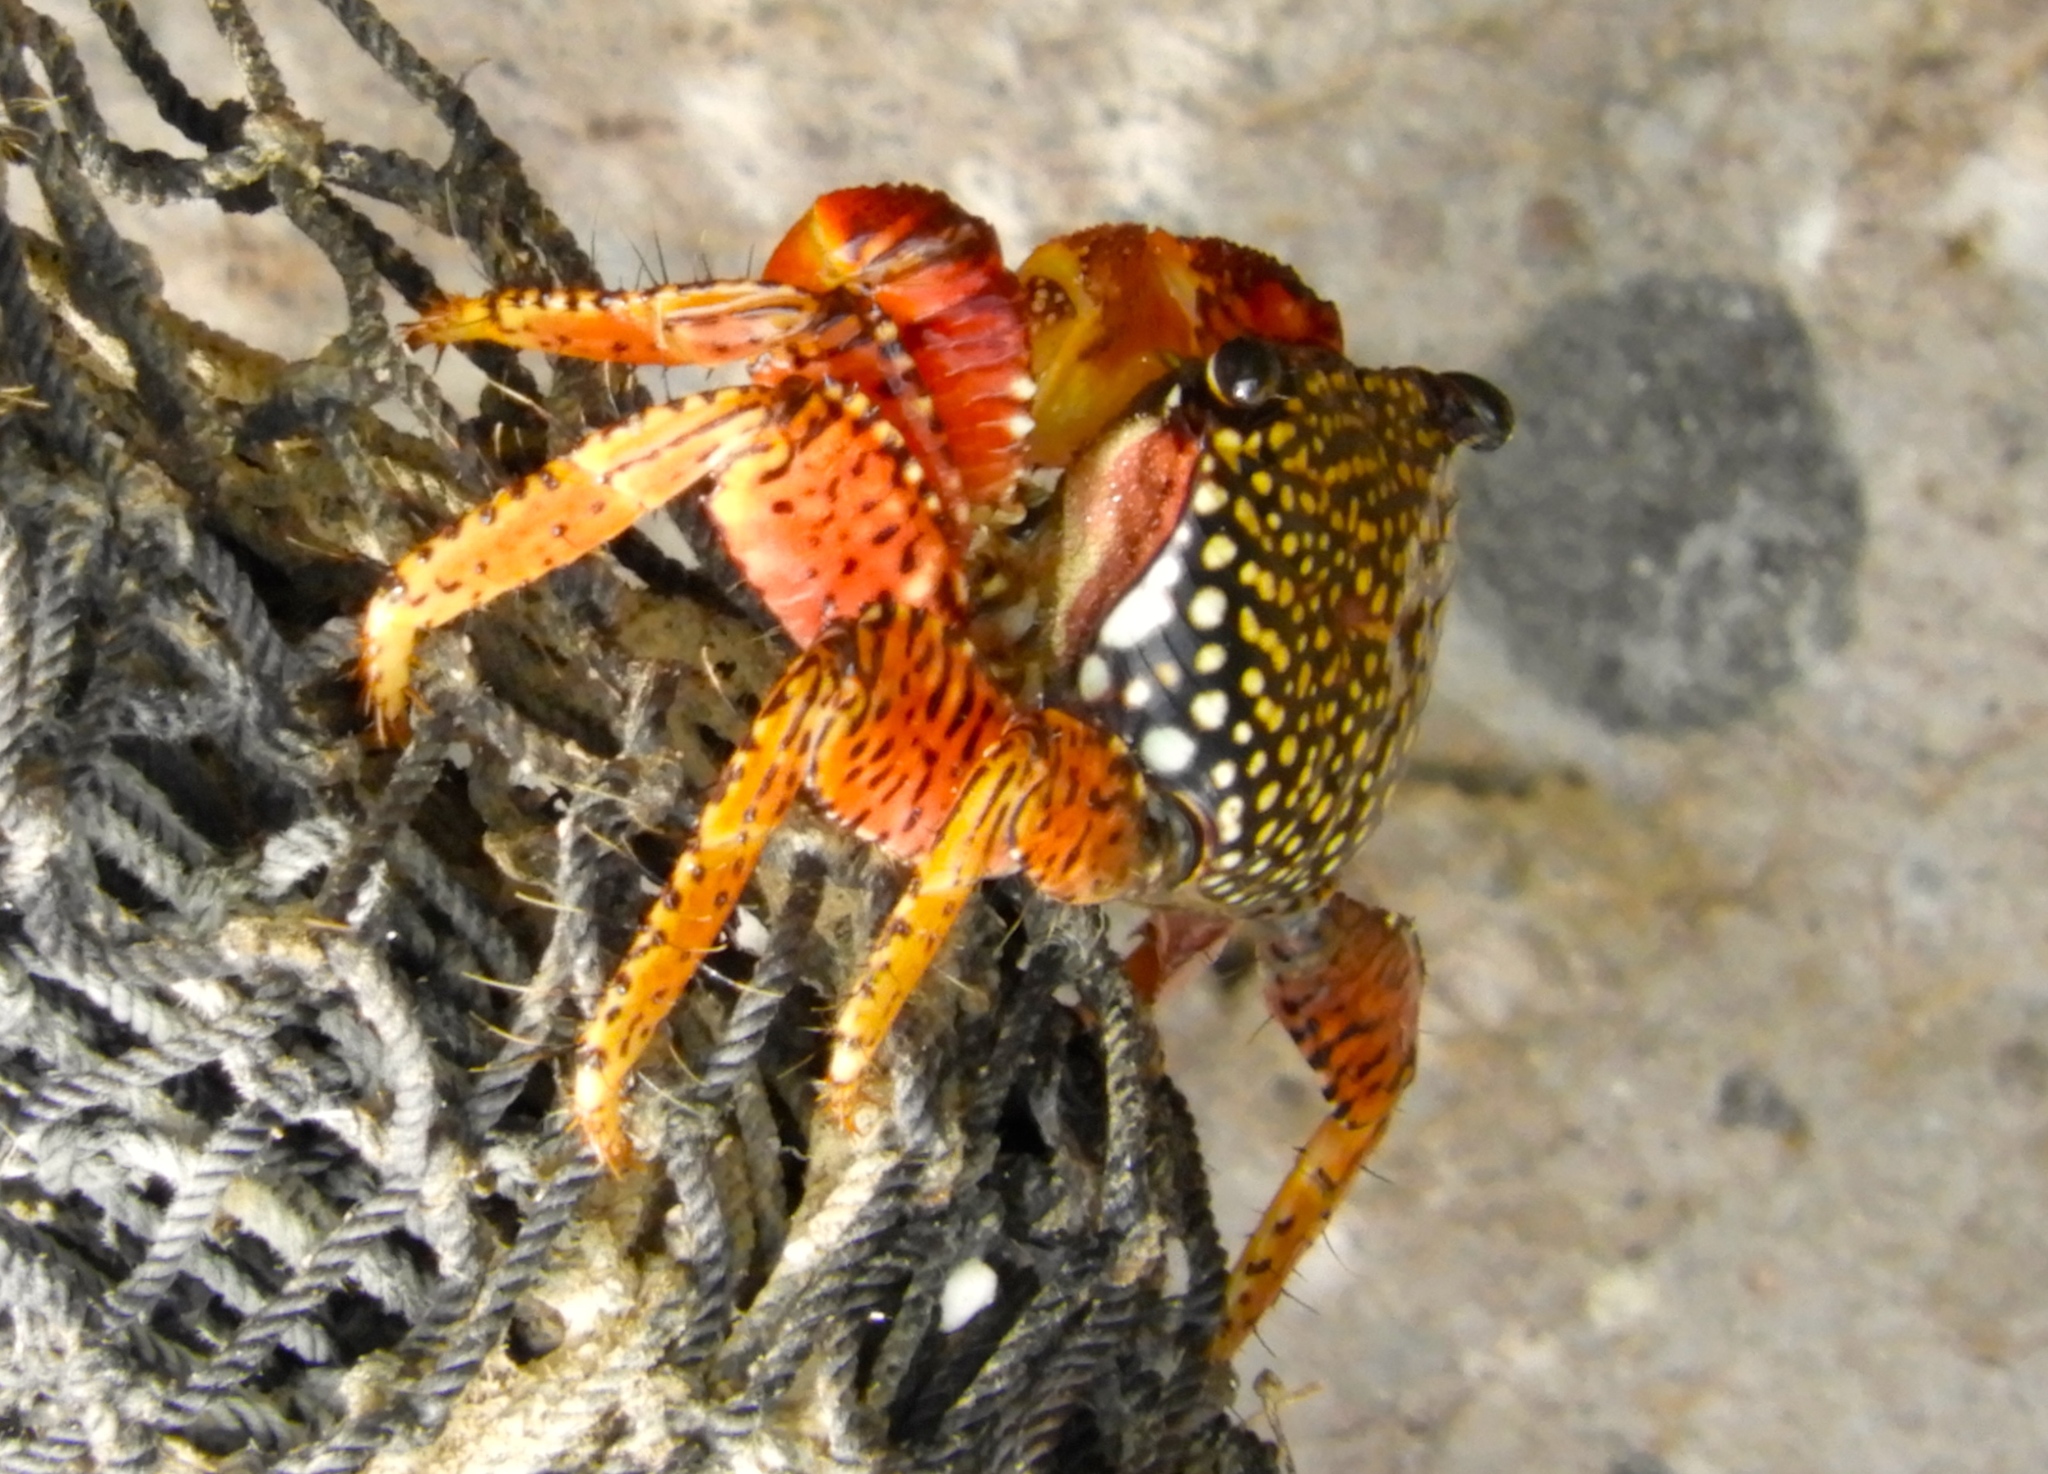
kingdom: Animalia
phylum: Arthropoda
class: Malacostraca
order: Decapoda
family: Grapsidae
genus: Goniopsis
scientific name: Goniopsis pulchra
